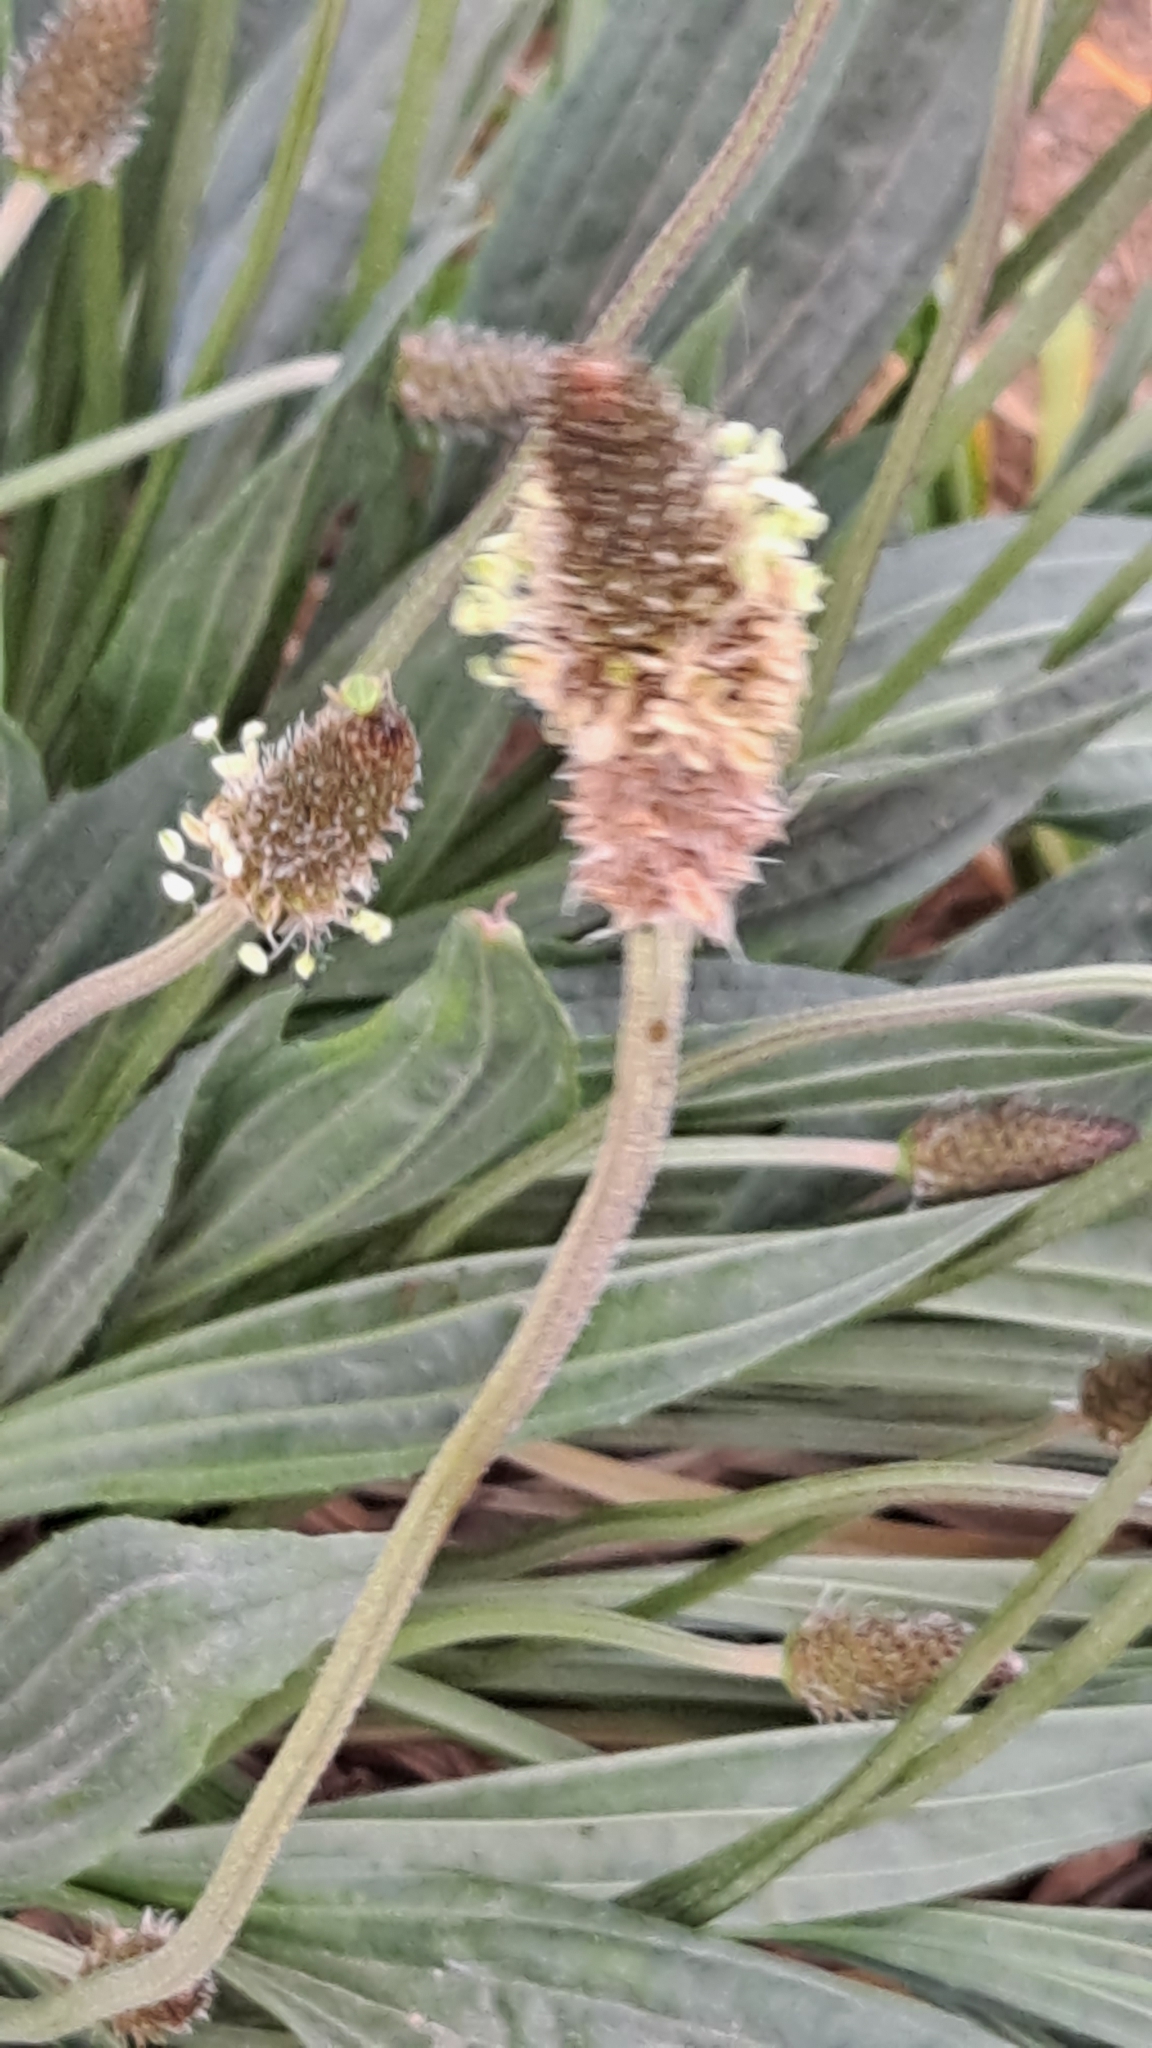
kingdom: Plantae
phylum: Tracheophyta
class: Magnoliopsida
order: Lamiales
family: Plantaginaceae
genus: Plantago
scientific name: Plantago lanceolata
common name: Ribwort plantain
